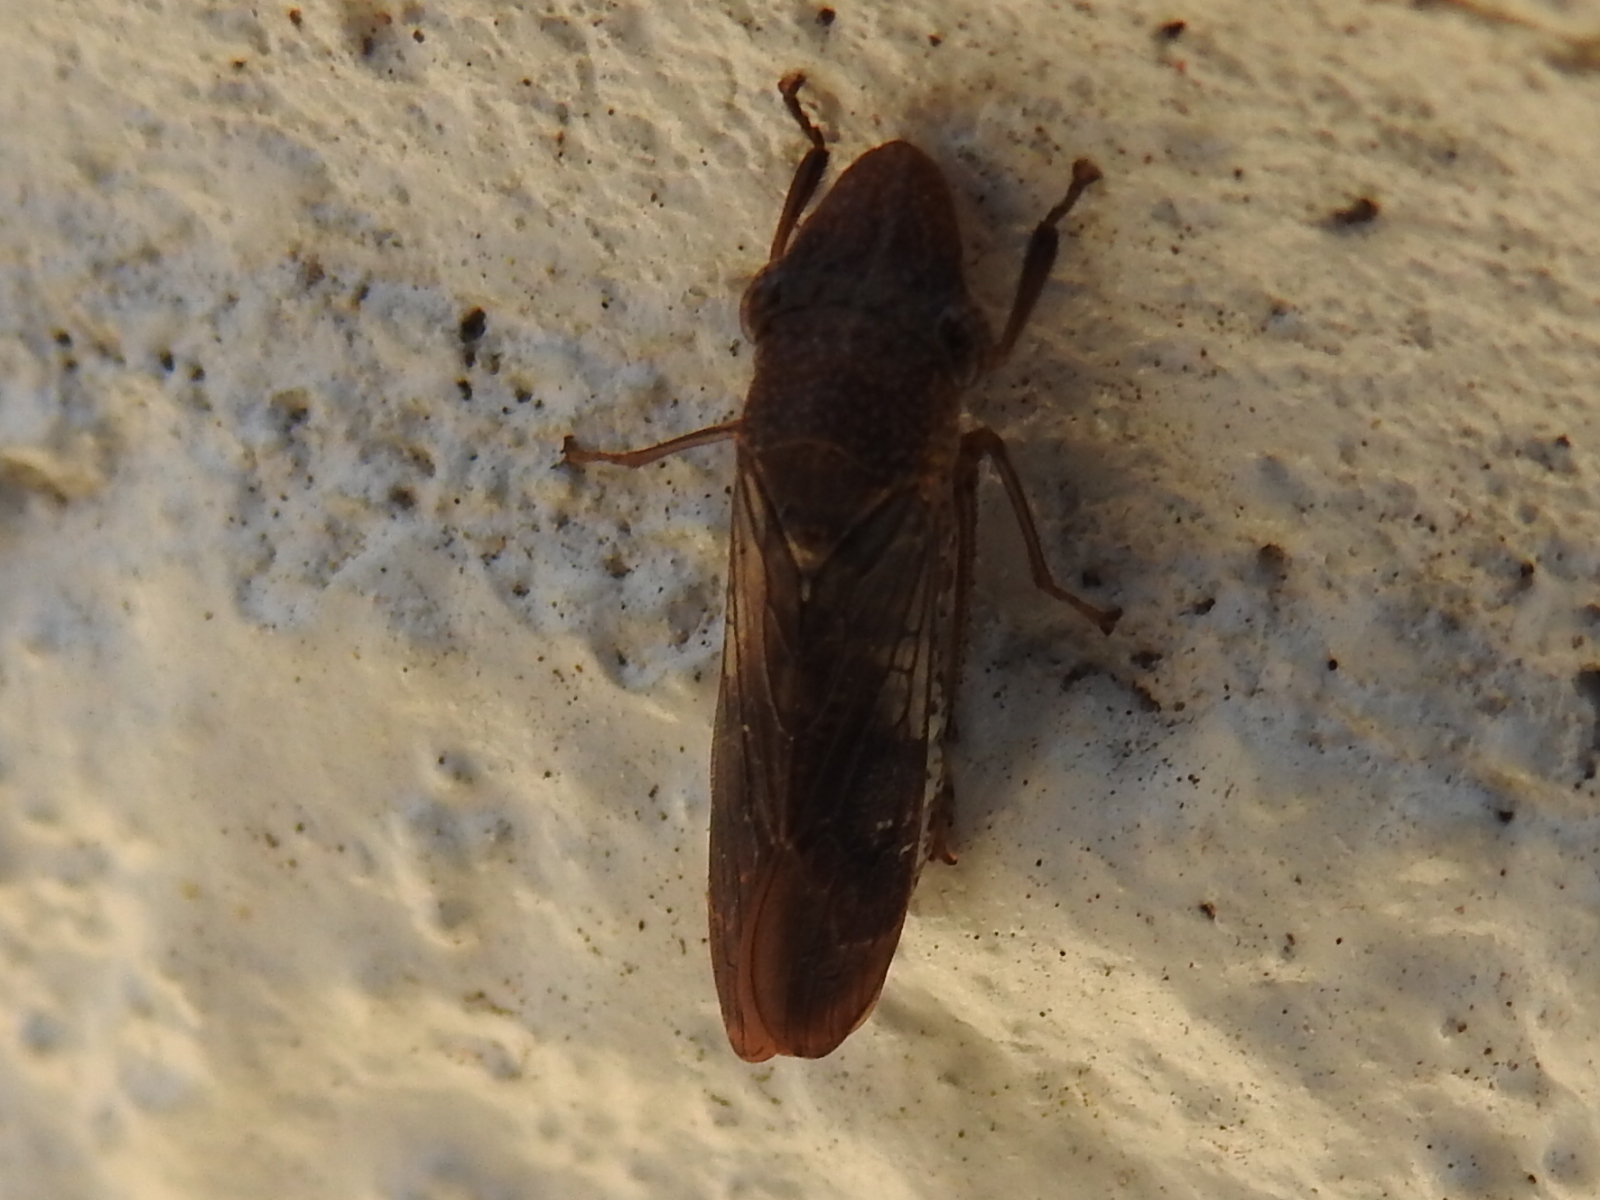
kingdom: Animalia
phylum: Arthropoda
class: Insecta
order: Hemiptera
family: Cicadellidae
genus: Homalodisca
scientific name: Homalodisca vitripennis
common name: Glassy-winged sharpshooter
